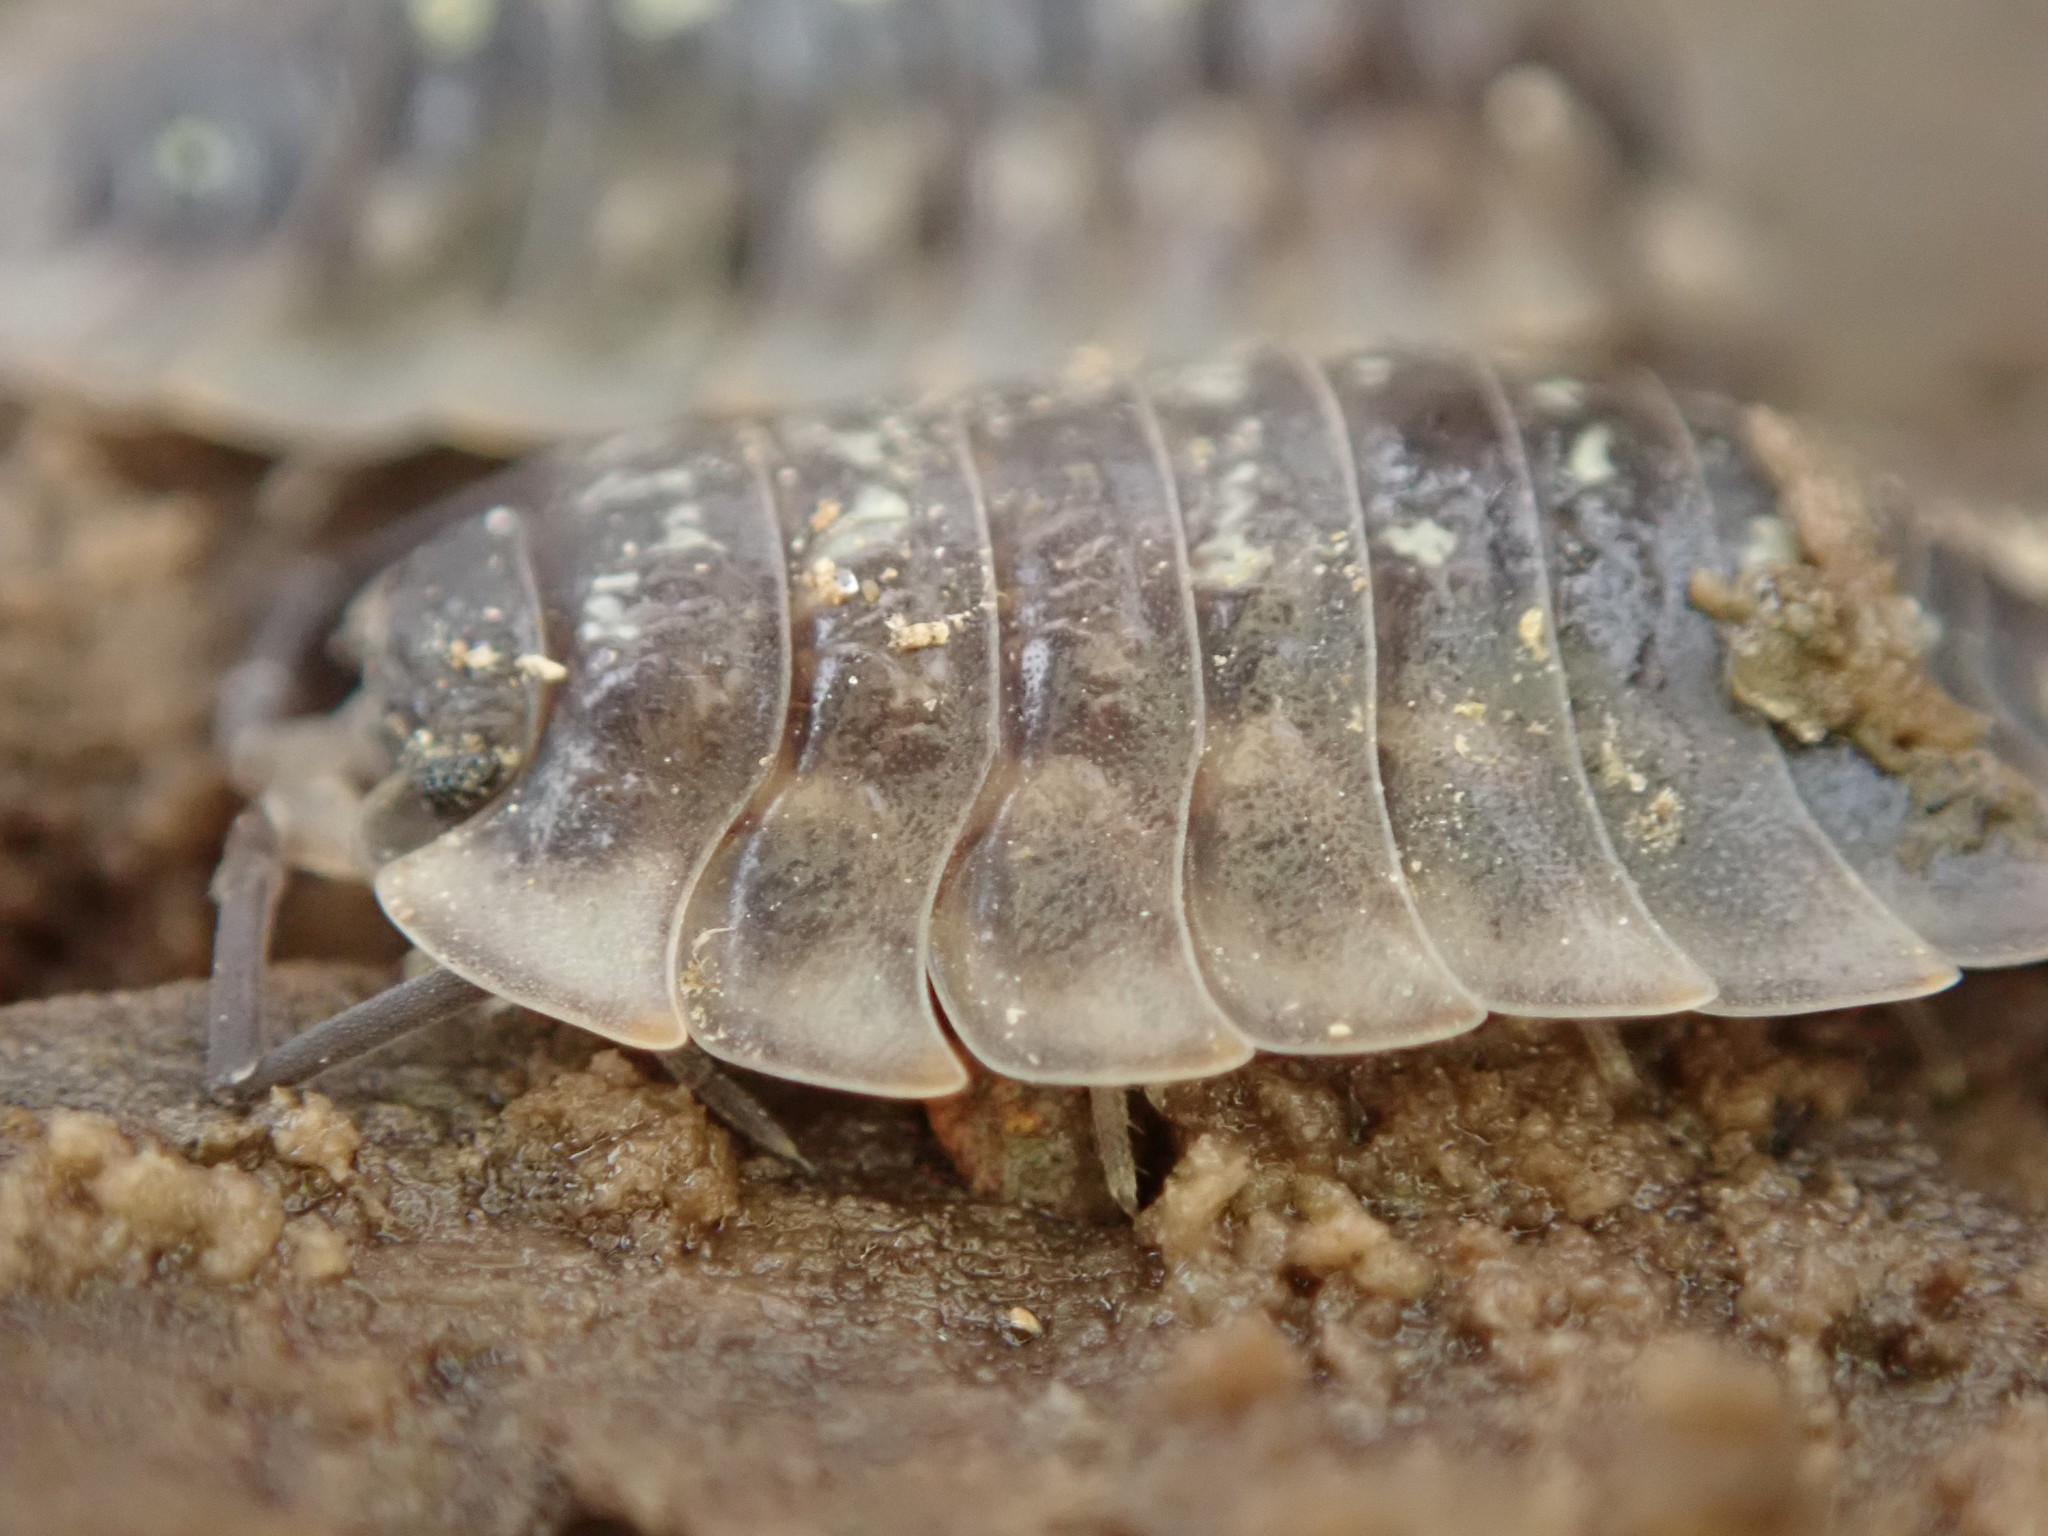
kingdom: Animalia
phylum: Arthropoda
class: Malacostraca
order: Isopoda
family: Oniscidae
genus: Oniscus
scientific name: Oniscus asellus
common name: Common shiny woodlouse
